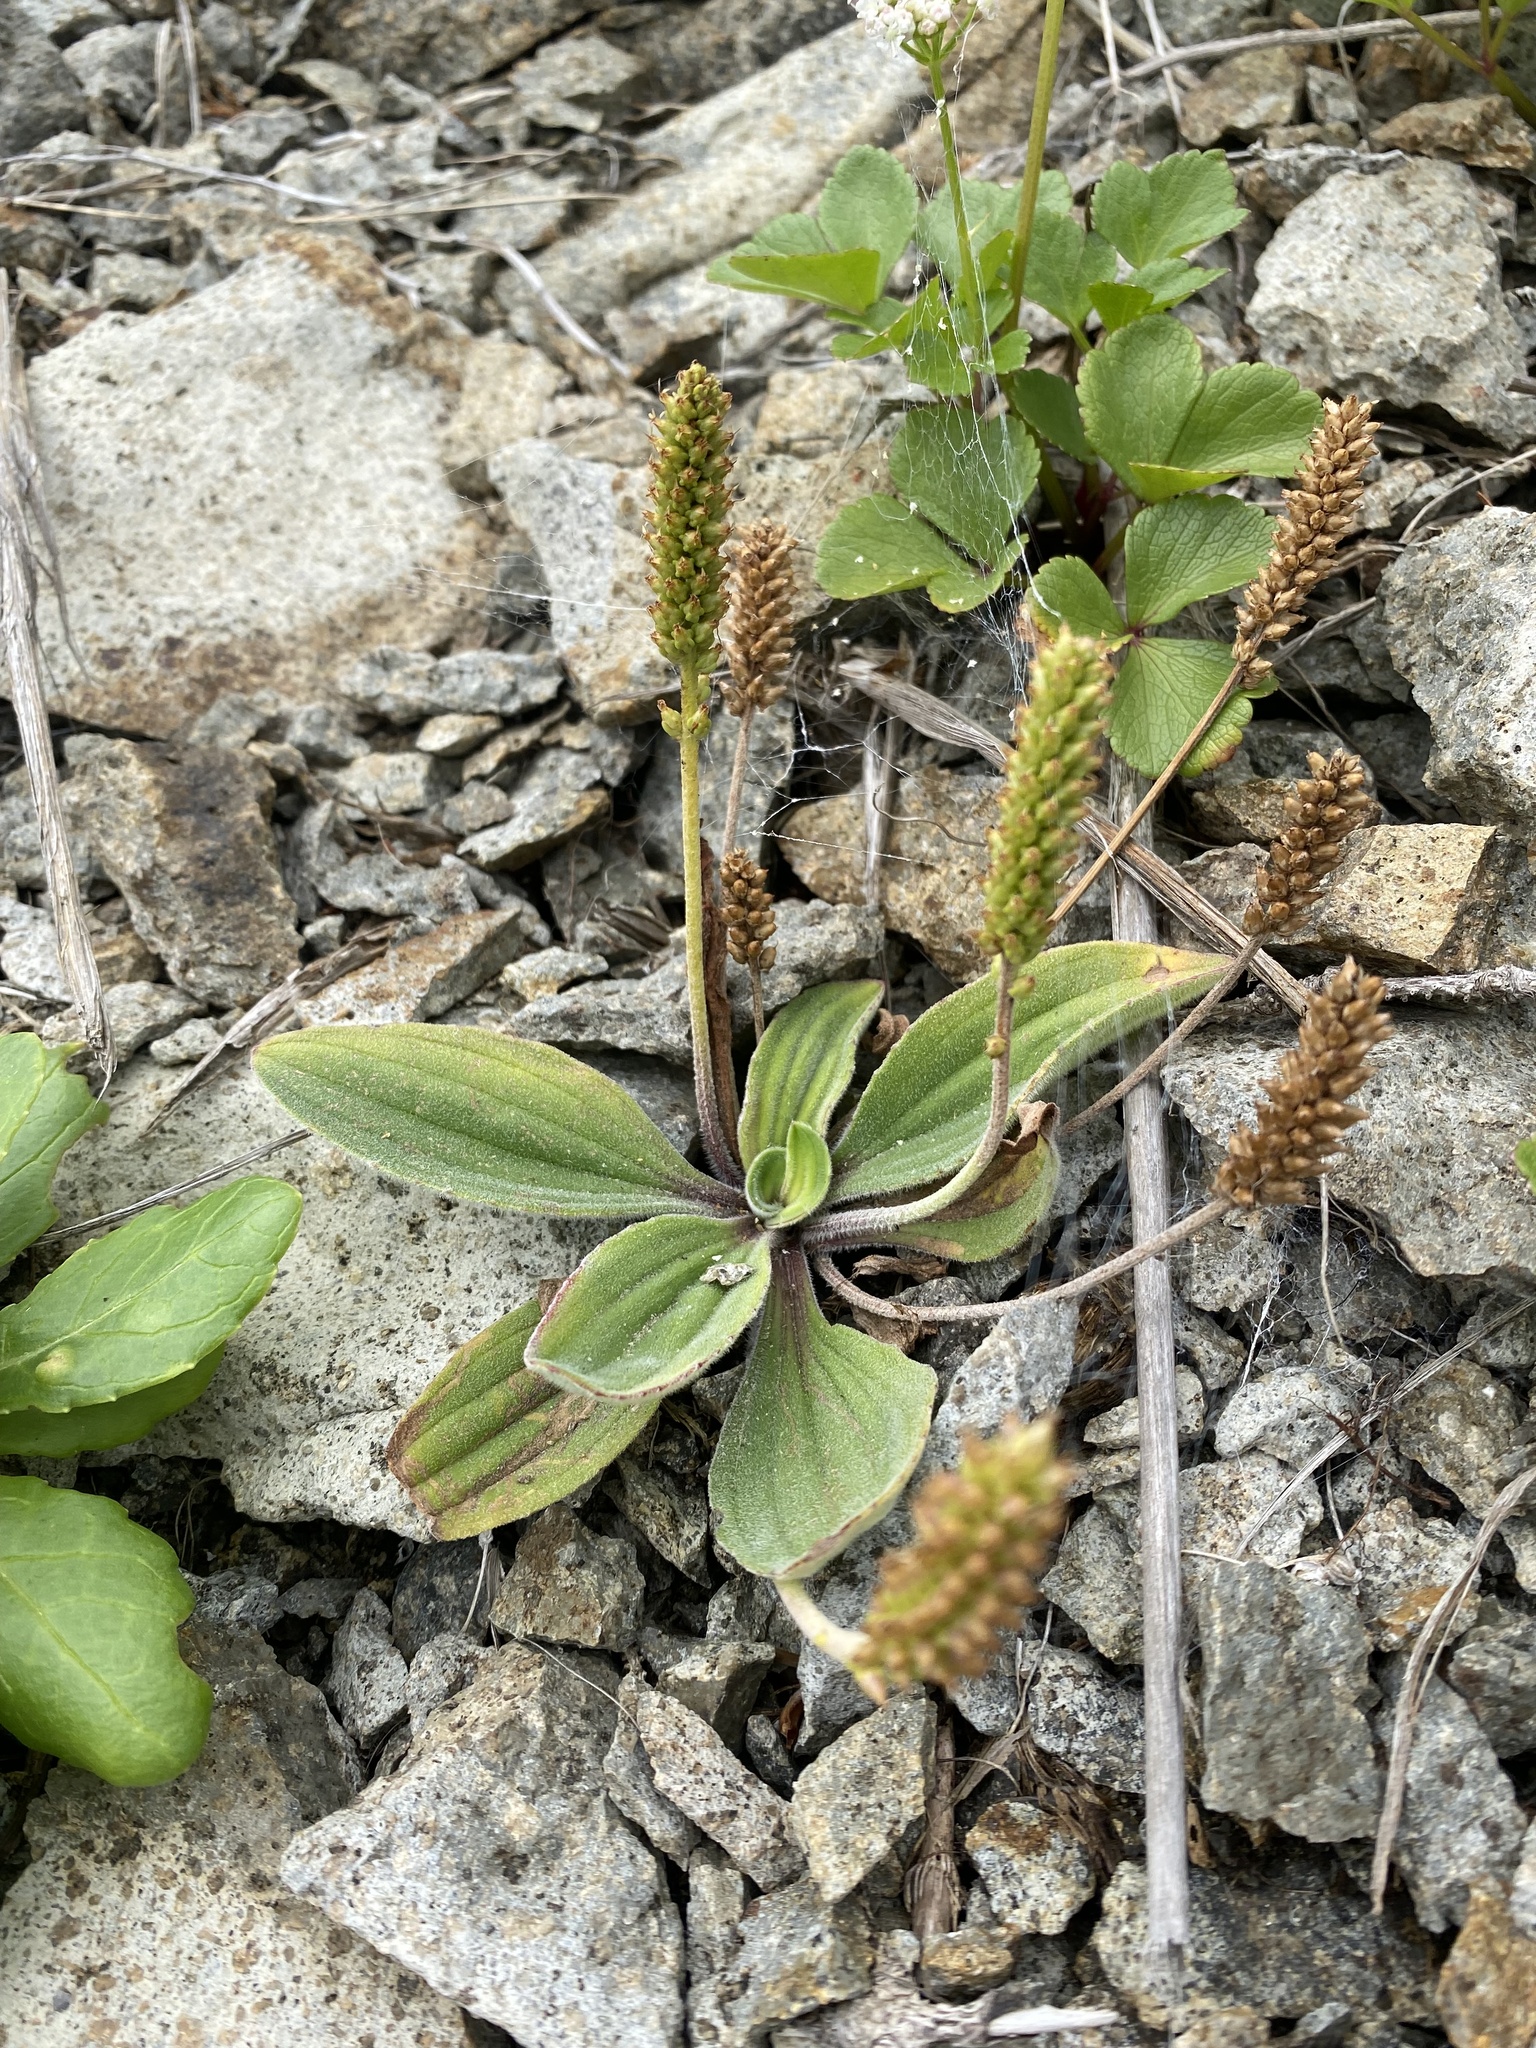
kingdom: Plantae
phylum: Tracheophyta
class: Magnoliopsida
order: Lamiales
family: Plantaginaceae
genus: Plantago
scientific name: Plantago camtschatica
